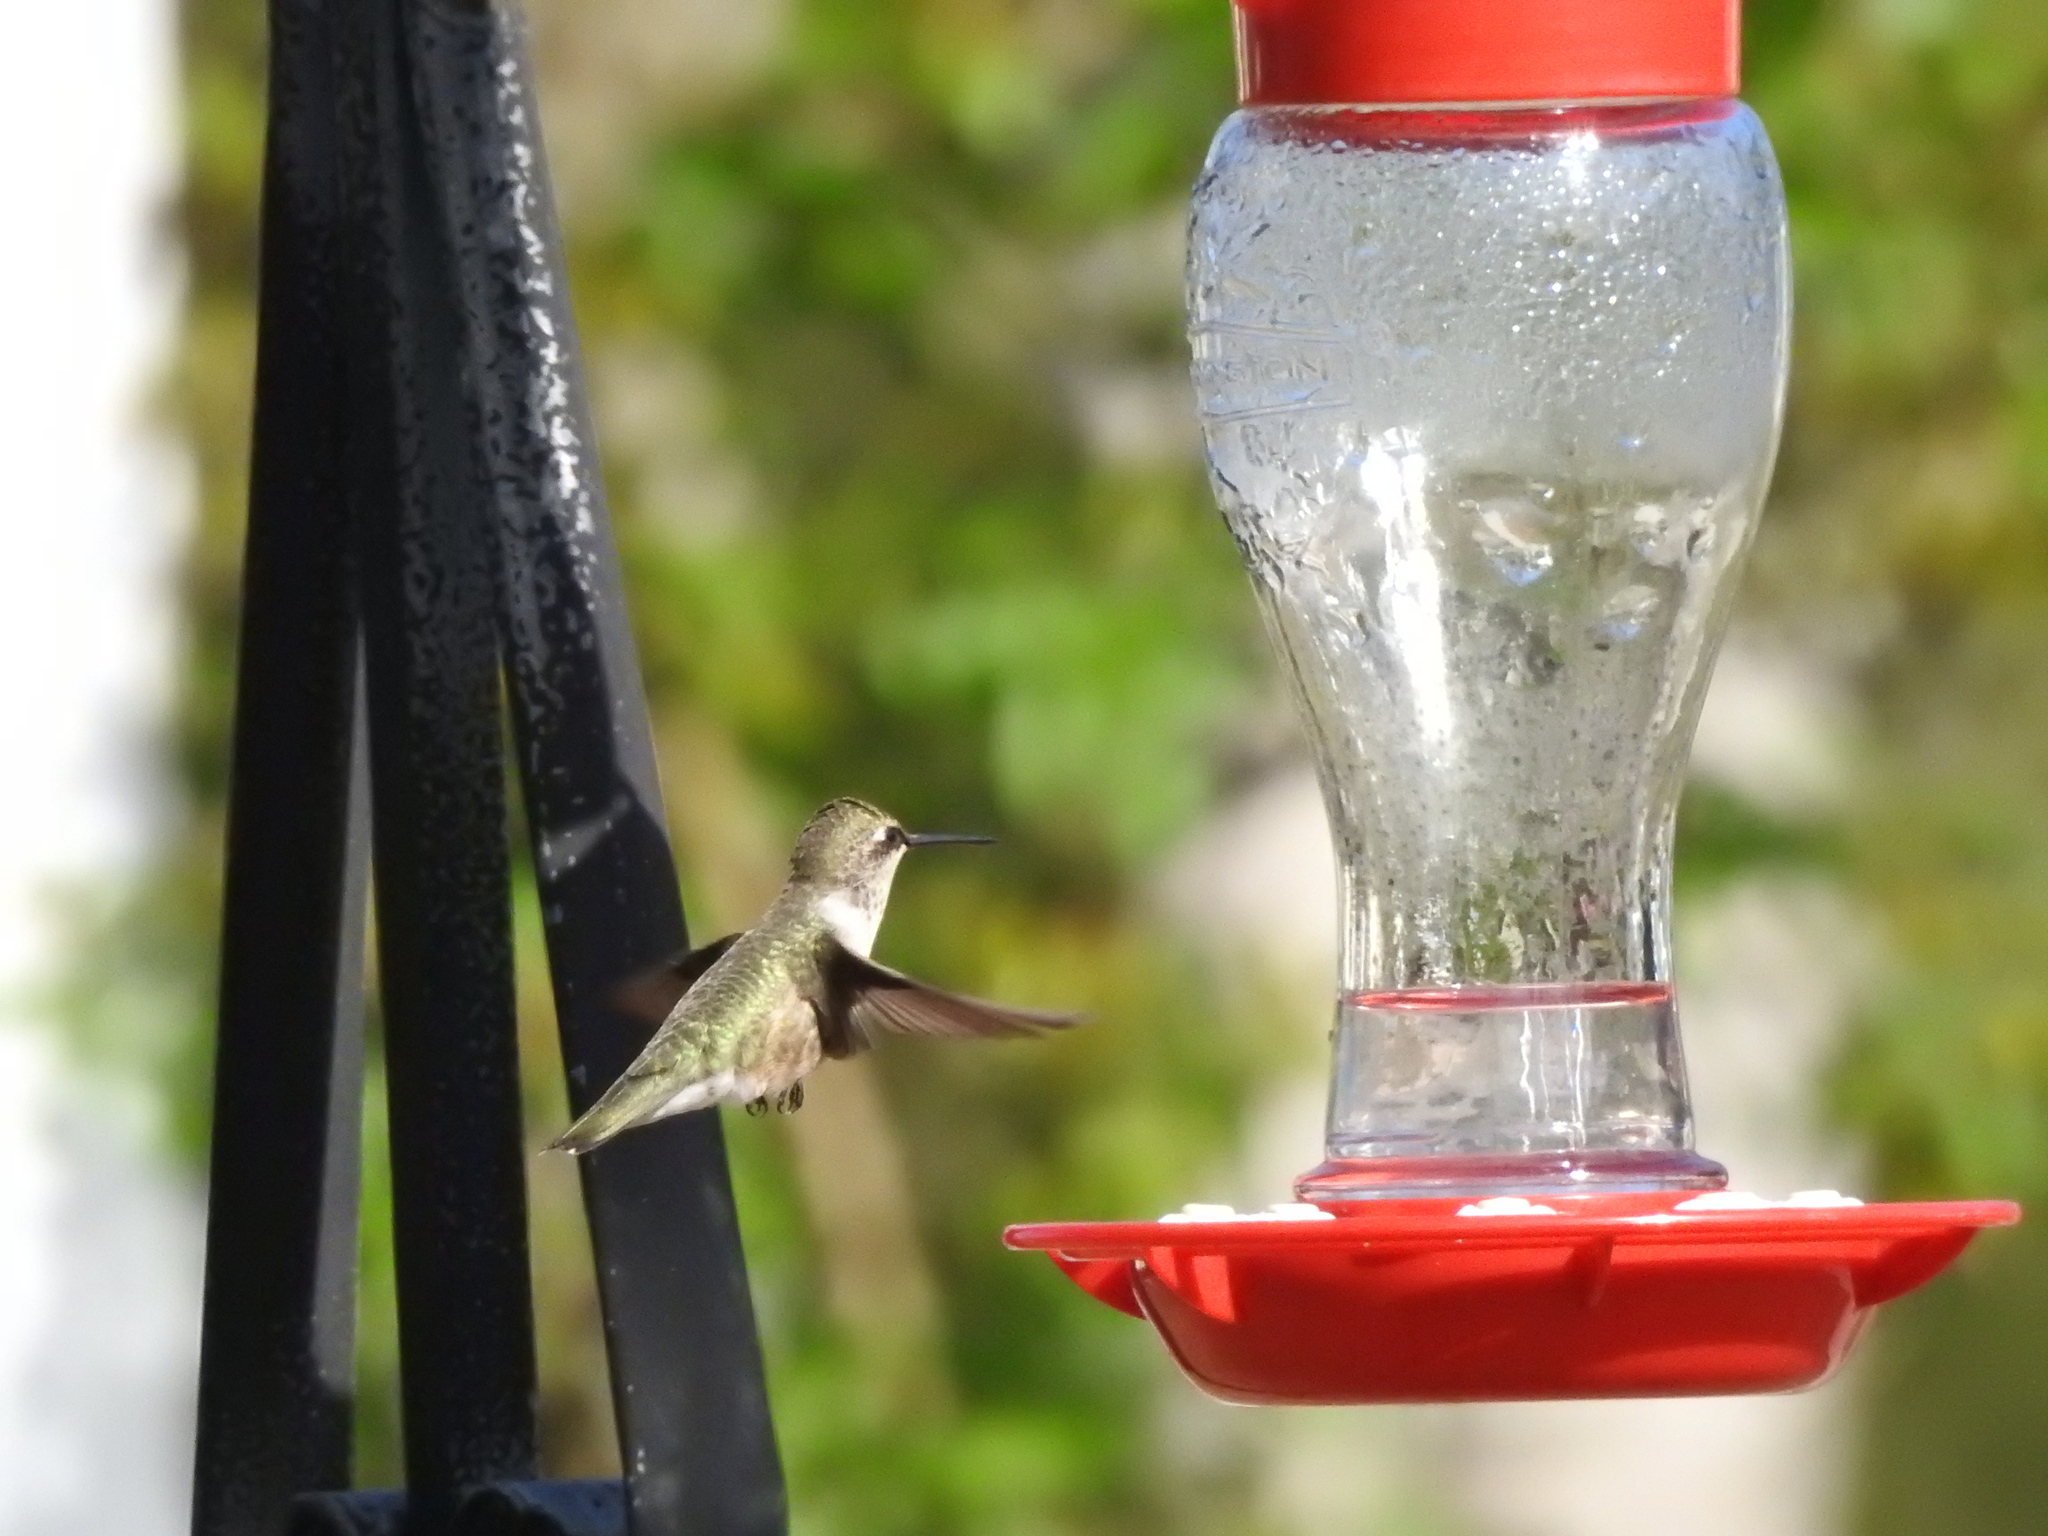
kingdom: Animalia
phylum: Chordata
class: Aves
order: Apodiformes
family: Trochilidae
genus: Archilochus
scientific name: Archilochus colubris
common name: Ruby-throated hummingbird
